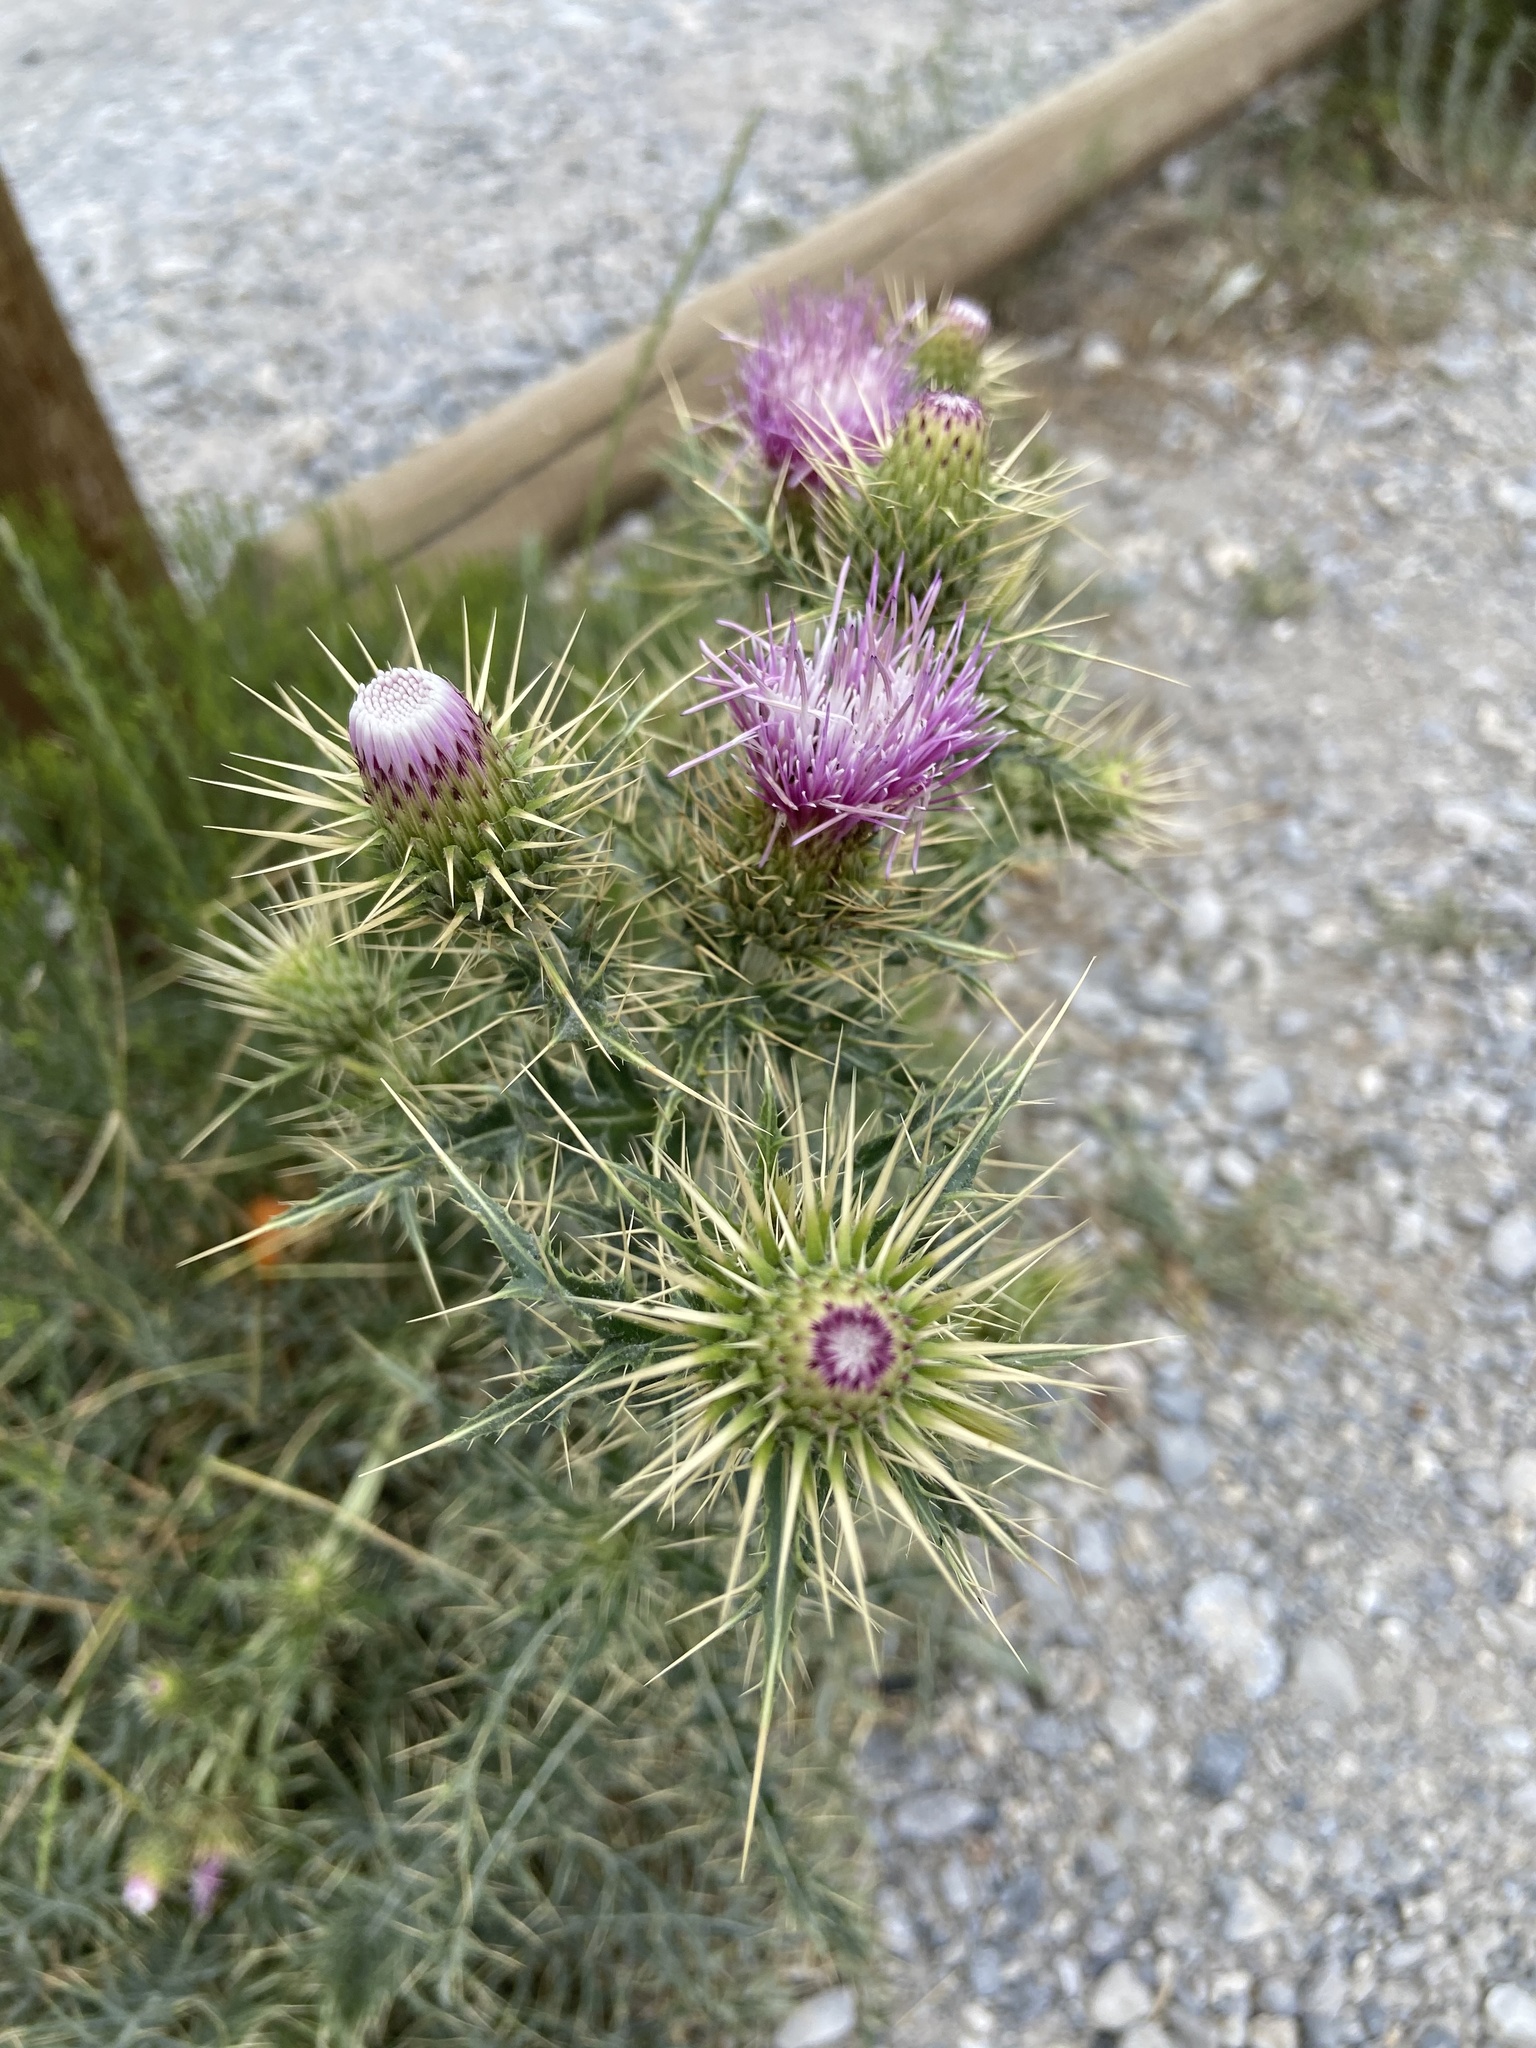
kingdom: Plantae
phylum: Tracheophyta
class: Magnoliopsida
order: Asterales
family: Asteraceae
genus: Cirsium
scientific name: Cirsium arizonicum
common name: Arizona thistle
